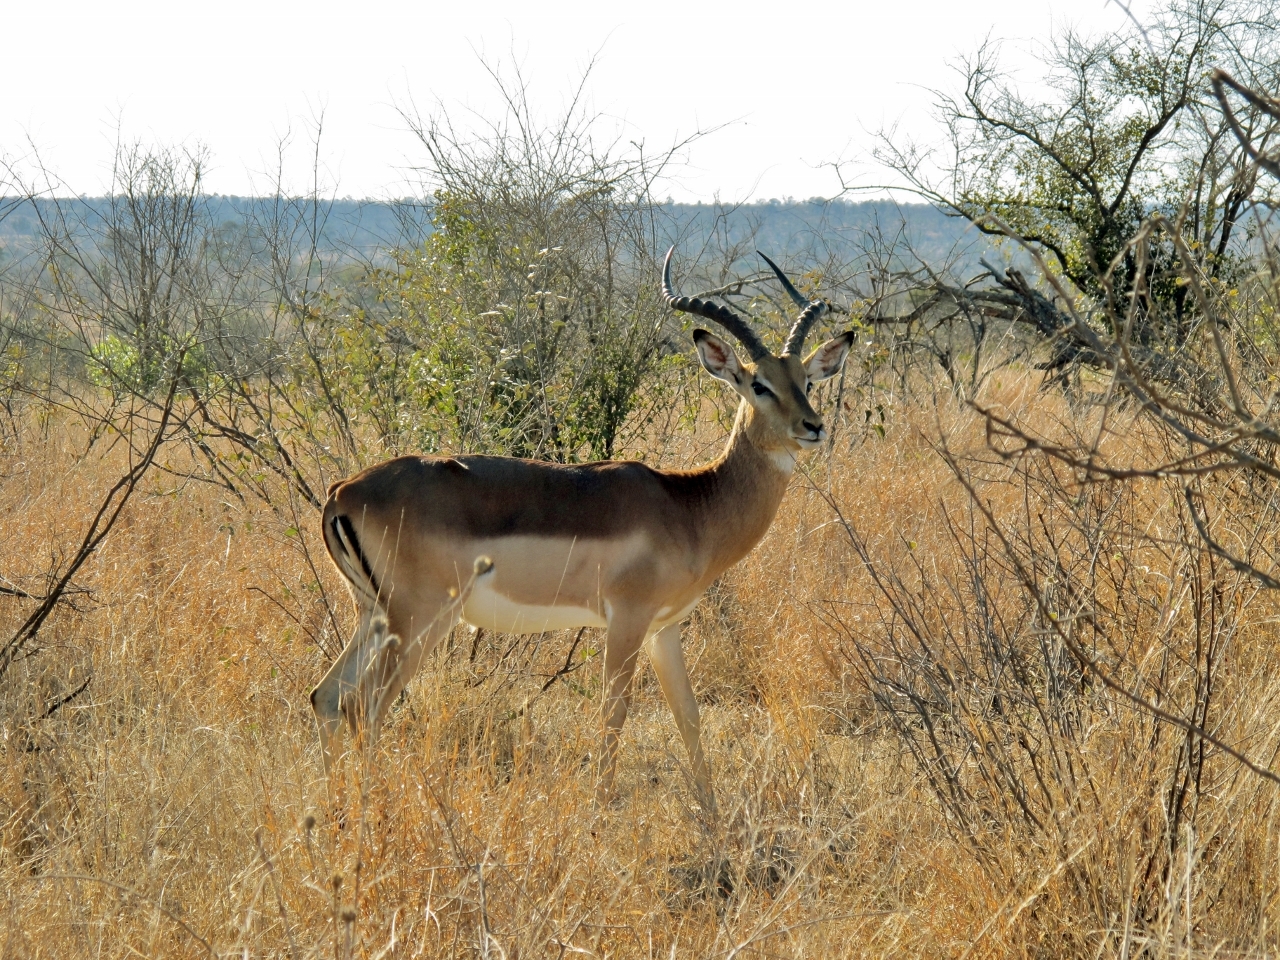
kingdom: Animalia
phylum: Chordata
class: Mammalia
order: Artiodactyla
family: Bovidae
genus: Aepyceros
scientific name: Aepyceros melampus
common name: Impala
